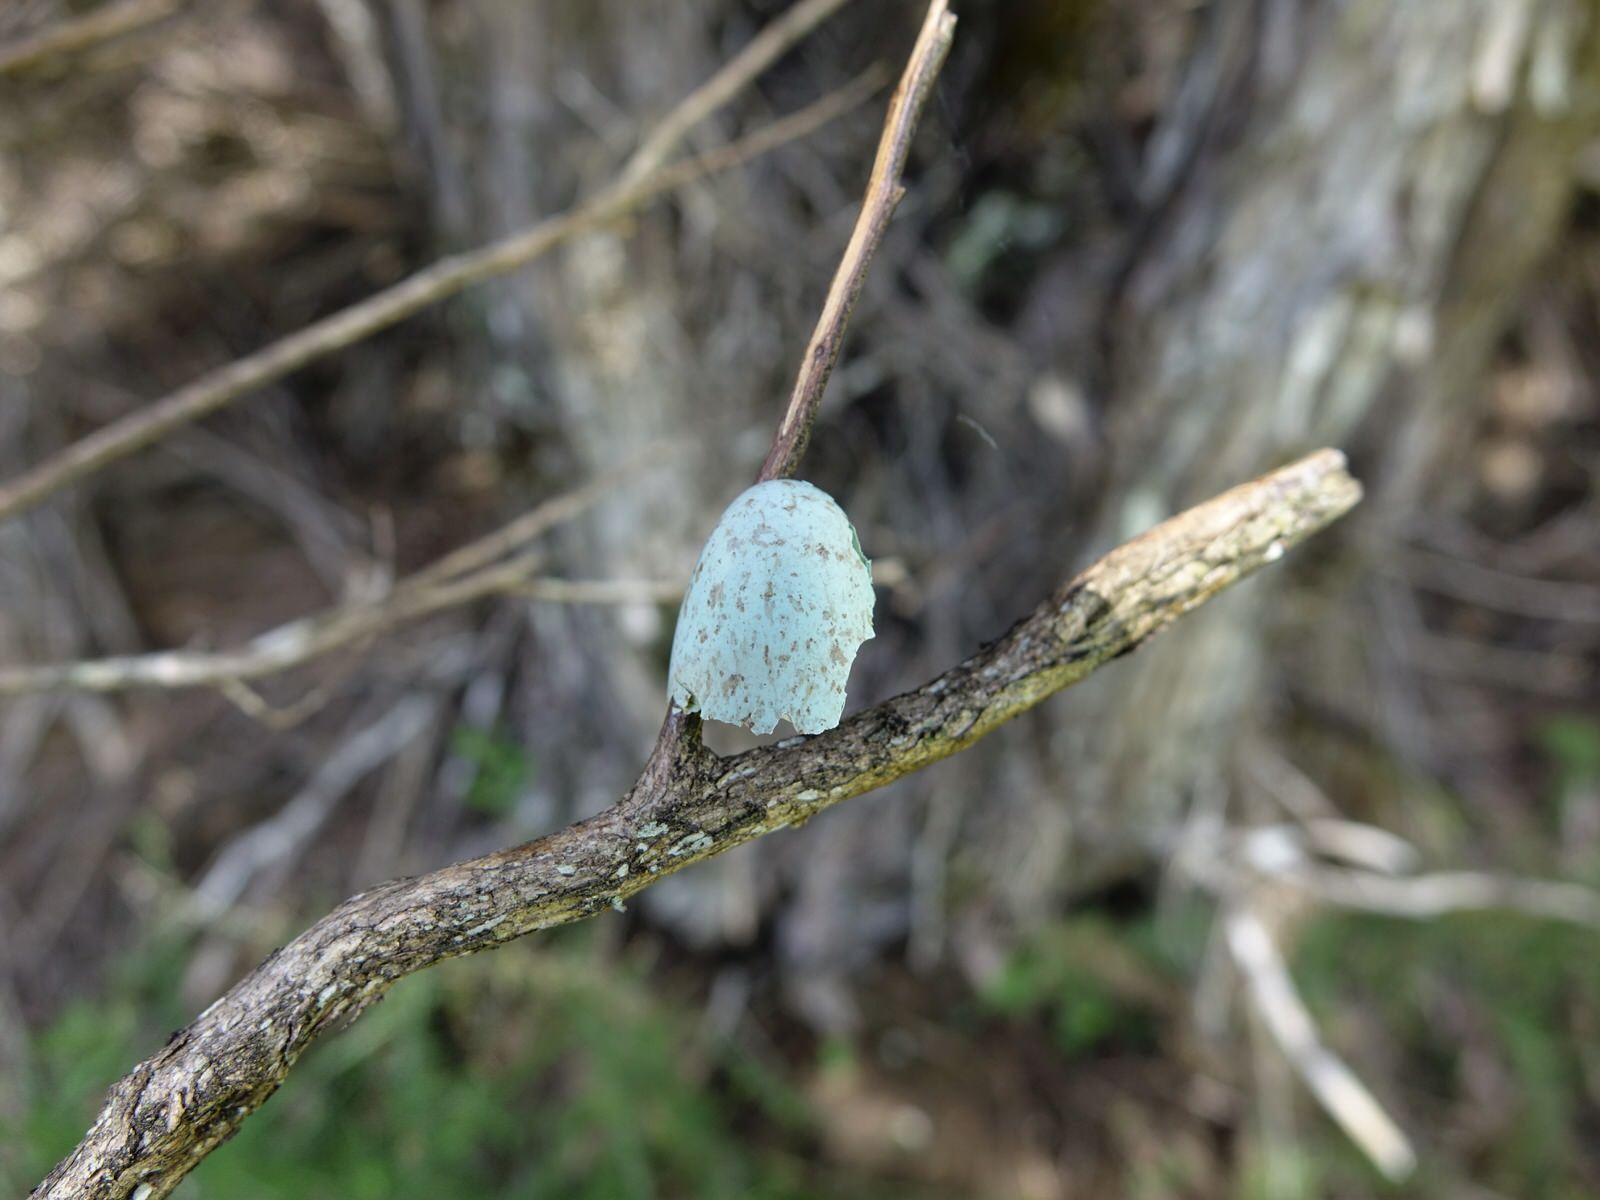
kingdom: Animalia
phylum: Chordata
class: Aves
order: Passeriformes
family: Cracticidae
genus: Gymnorhina
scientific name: Gymnorhina tibicen
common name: Australian magpie
